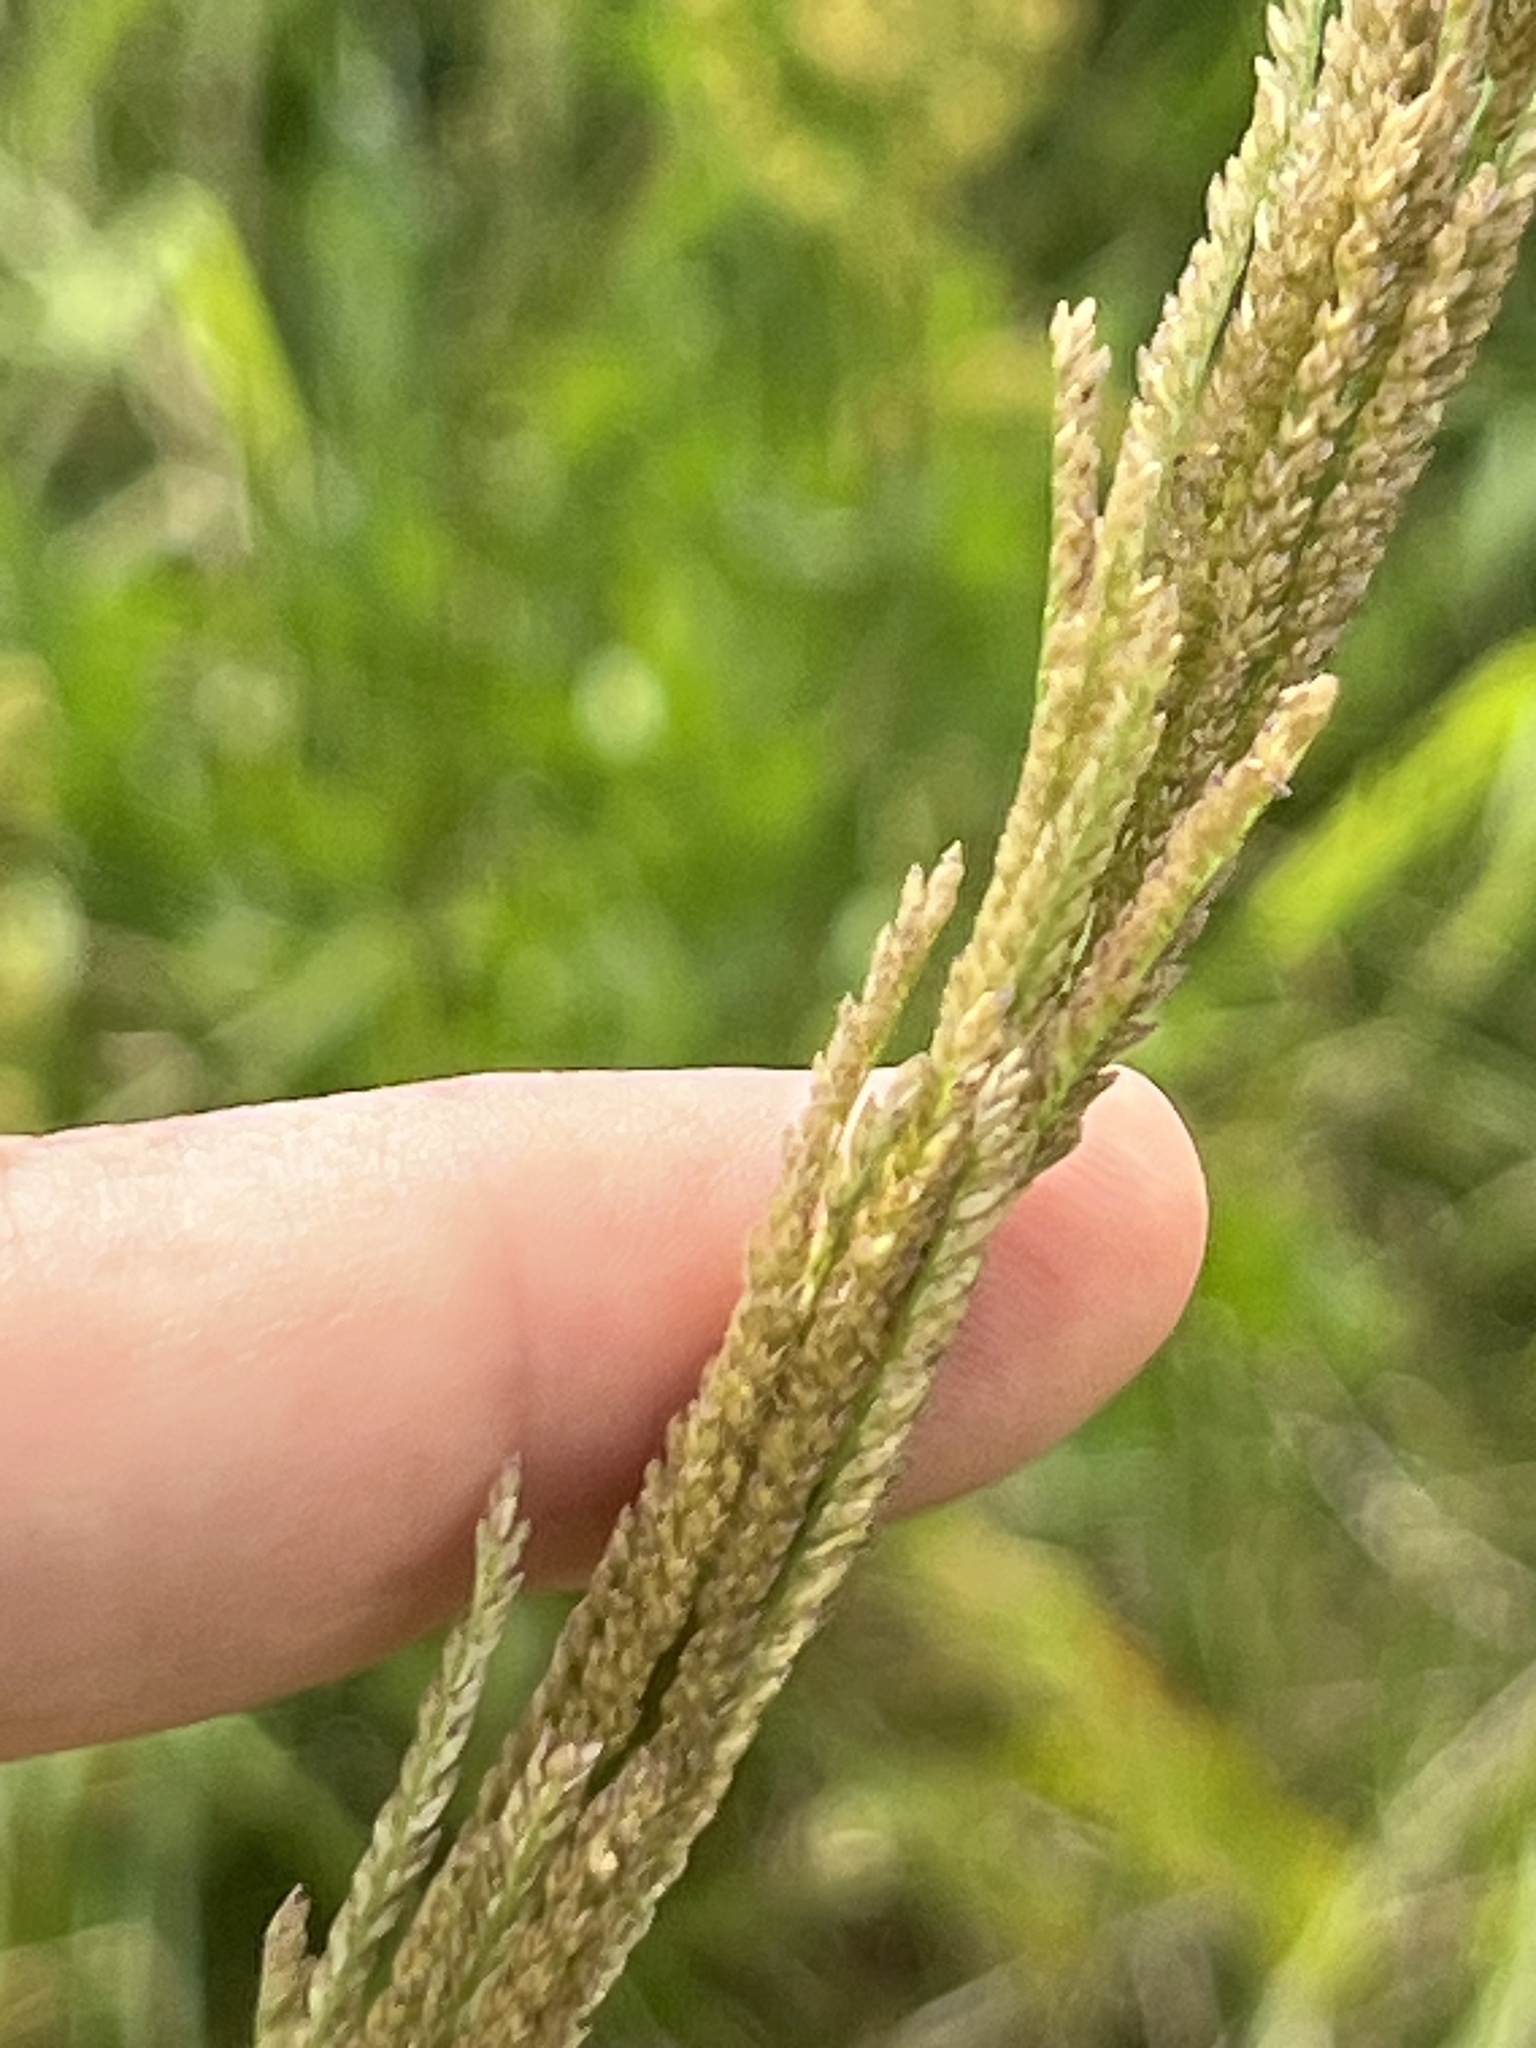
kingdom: Plantae
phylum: Tracheophyta
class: Liliopsida
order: Poales
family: Poaceae
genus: Leptochloa
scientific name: Leptochloa nealleyi
